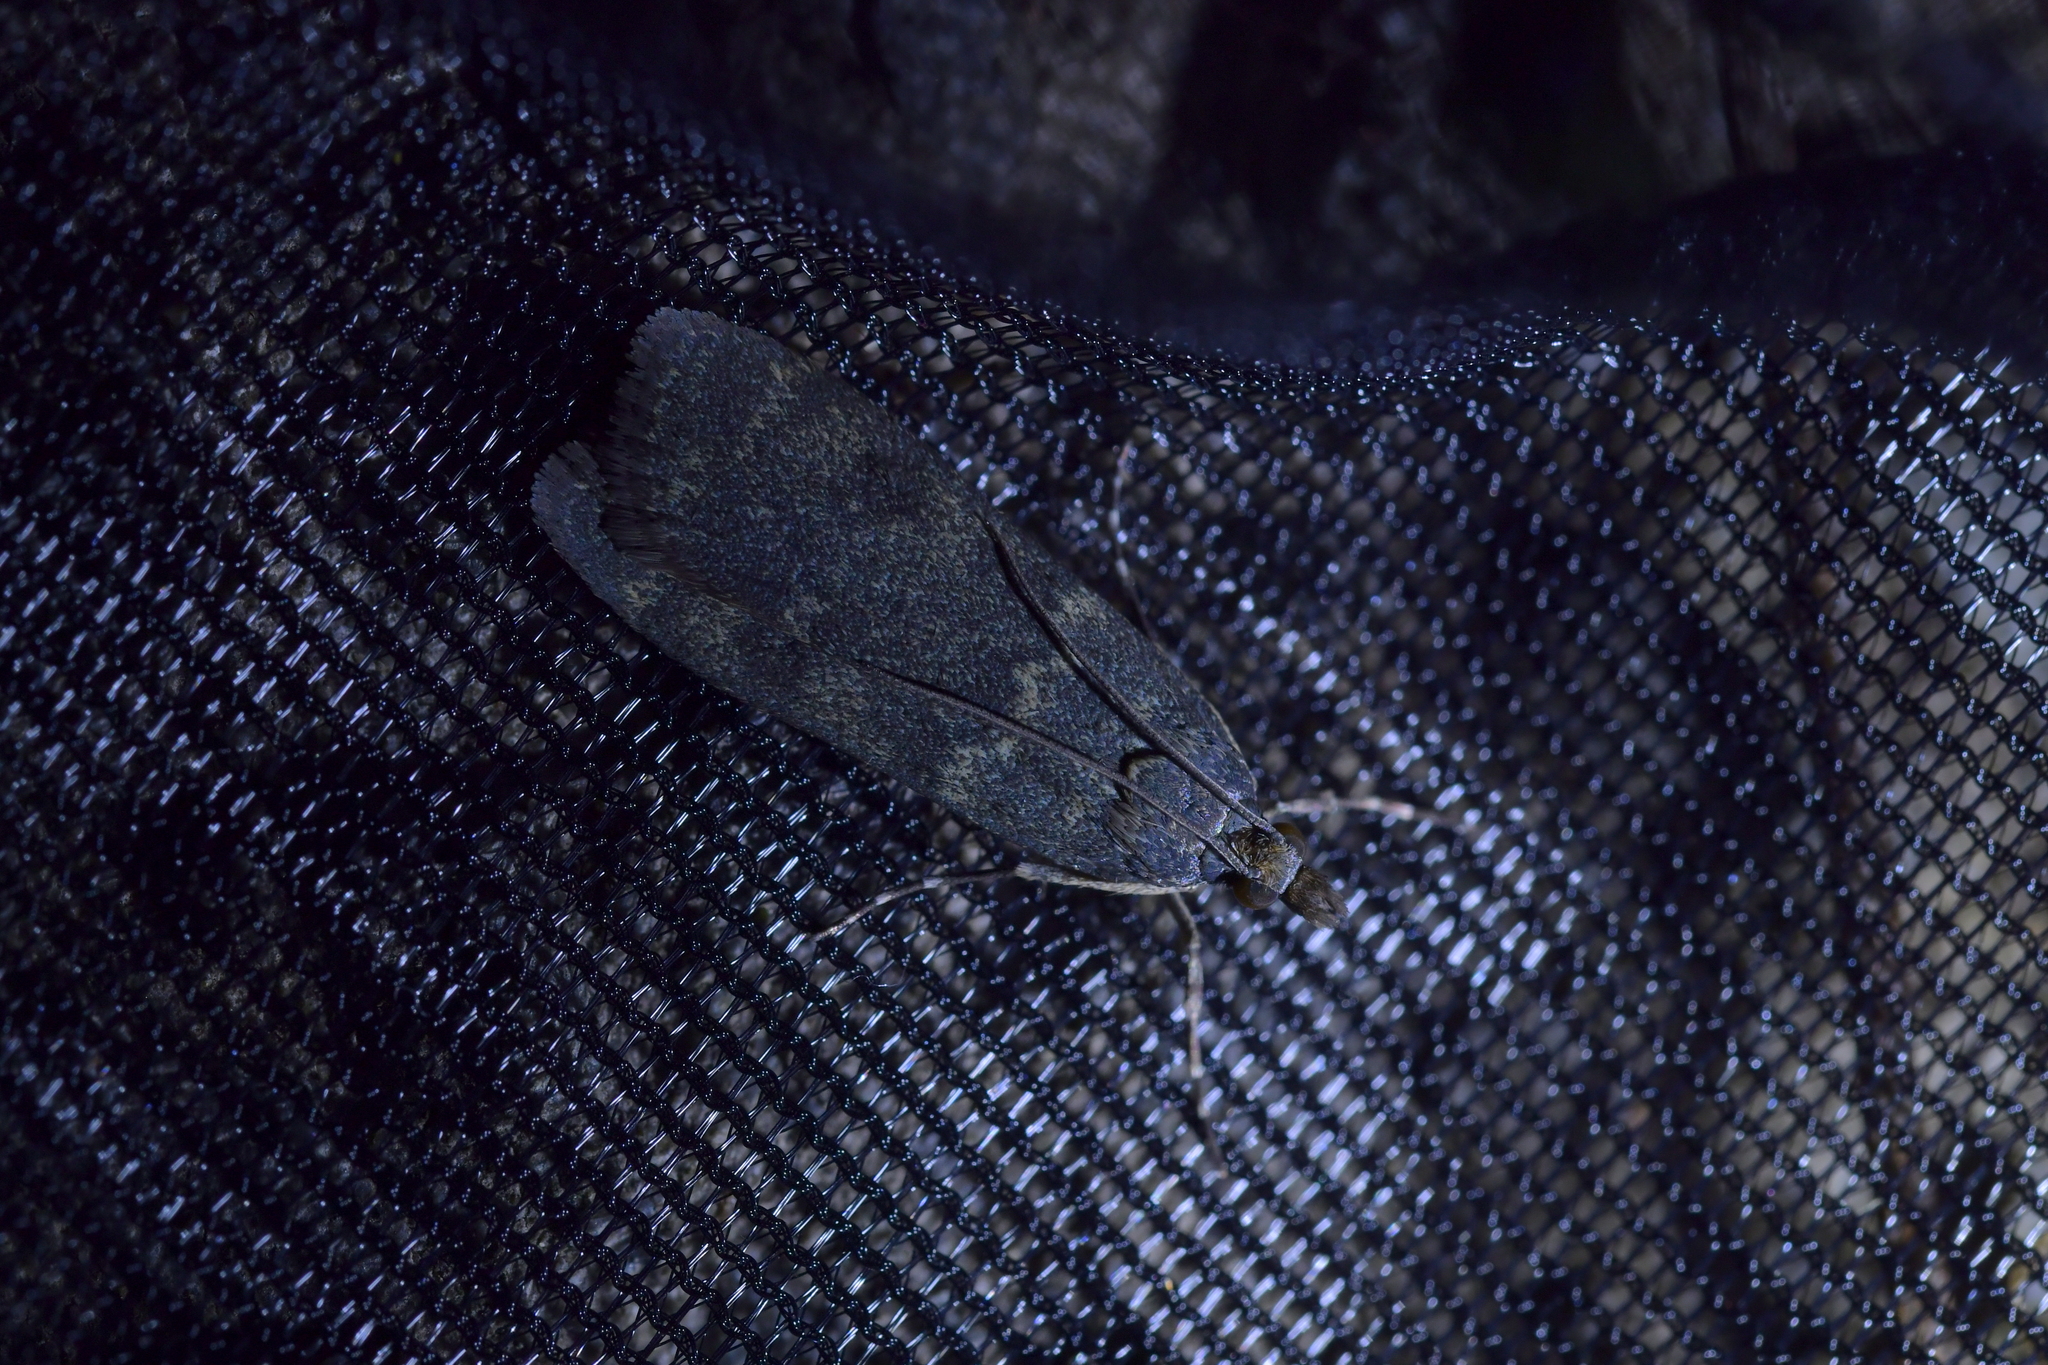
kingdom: Animalia
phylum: Arthropoda
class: Insecta
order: Lepidoptera
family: Crambidae
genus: Eudonia
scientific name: Eudonia cataxesta
